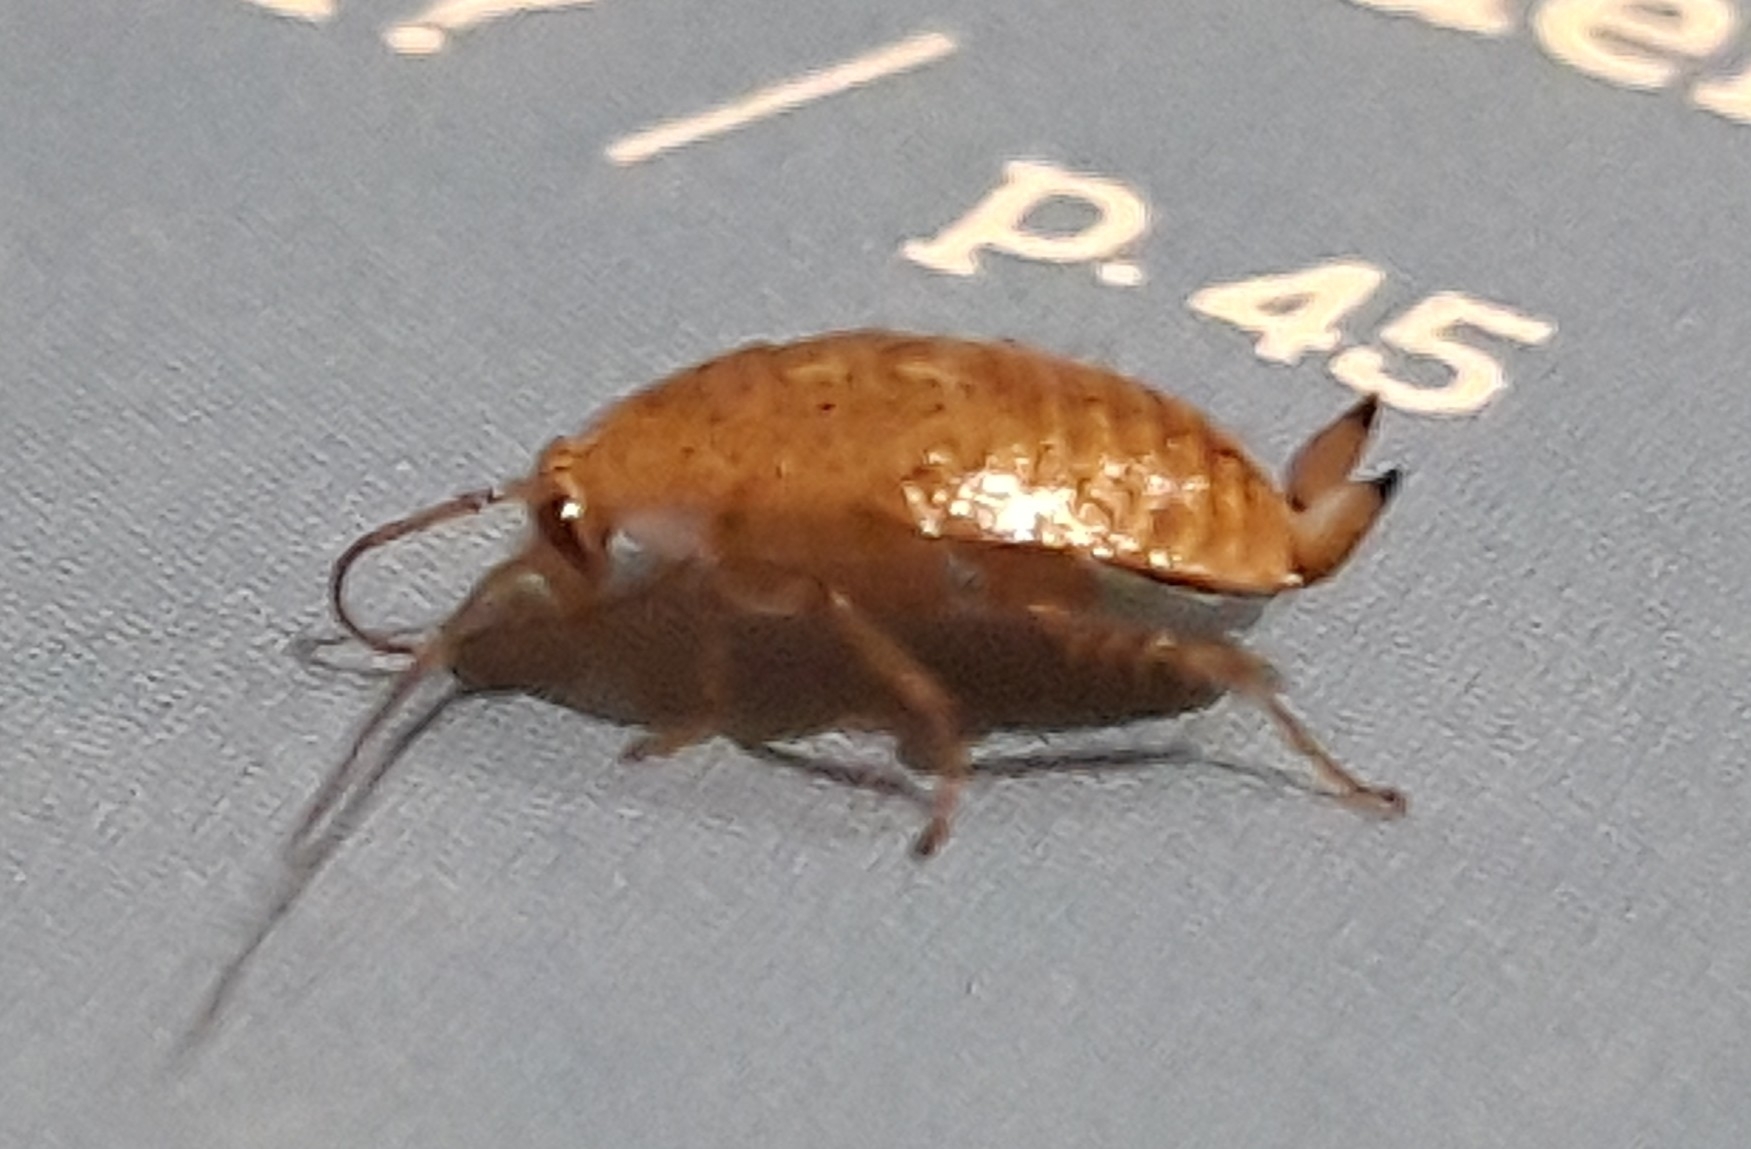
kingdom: Animalia
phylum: Arthropoda
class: Insecta
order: Blattodea
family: Ectobiidae
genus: Ectobius
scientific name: Ectobius pallidus
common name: Tawny cockroach
